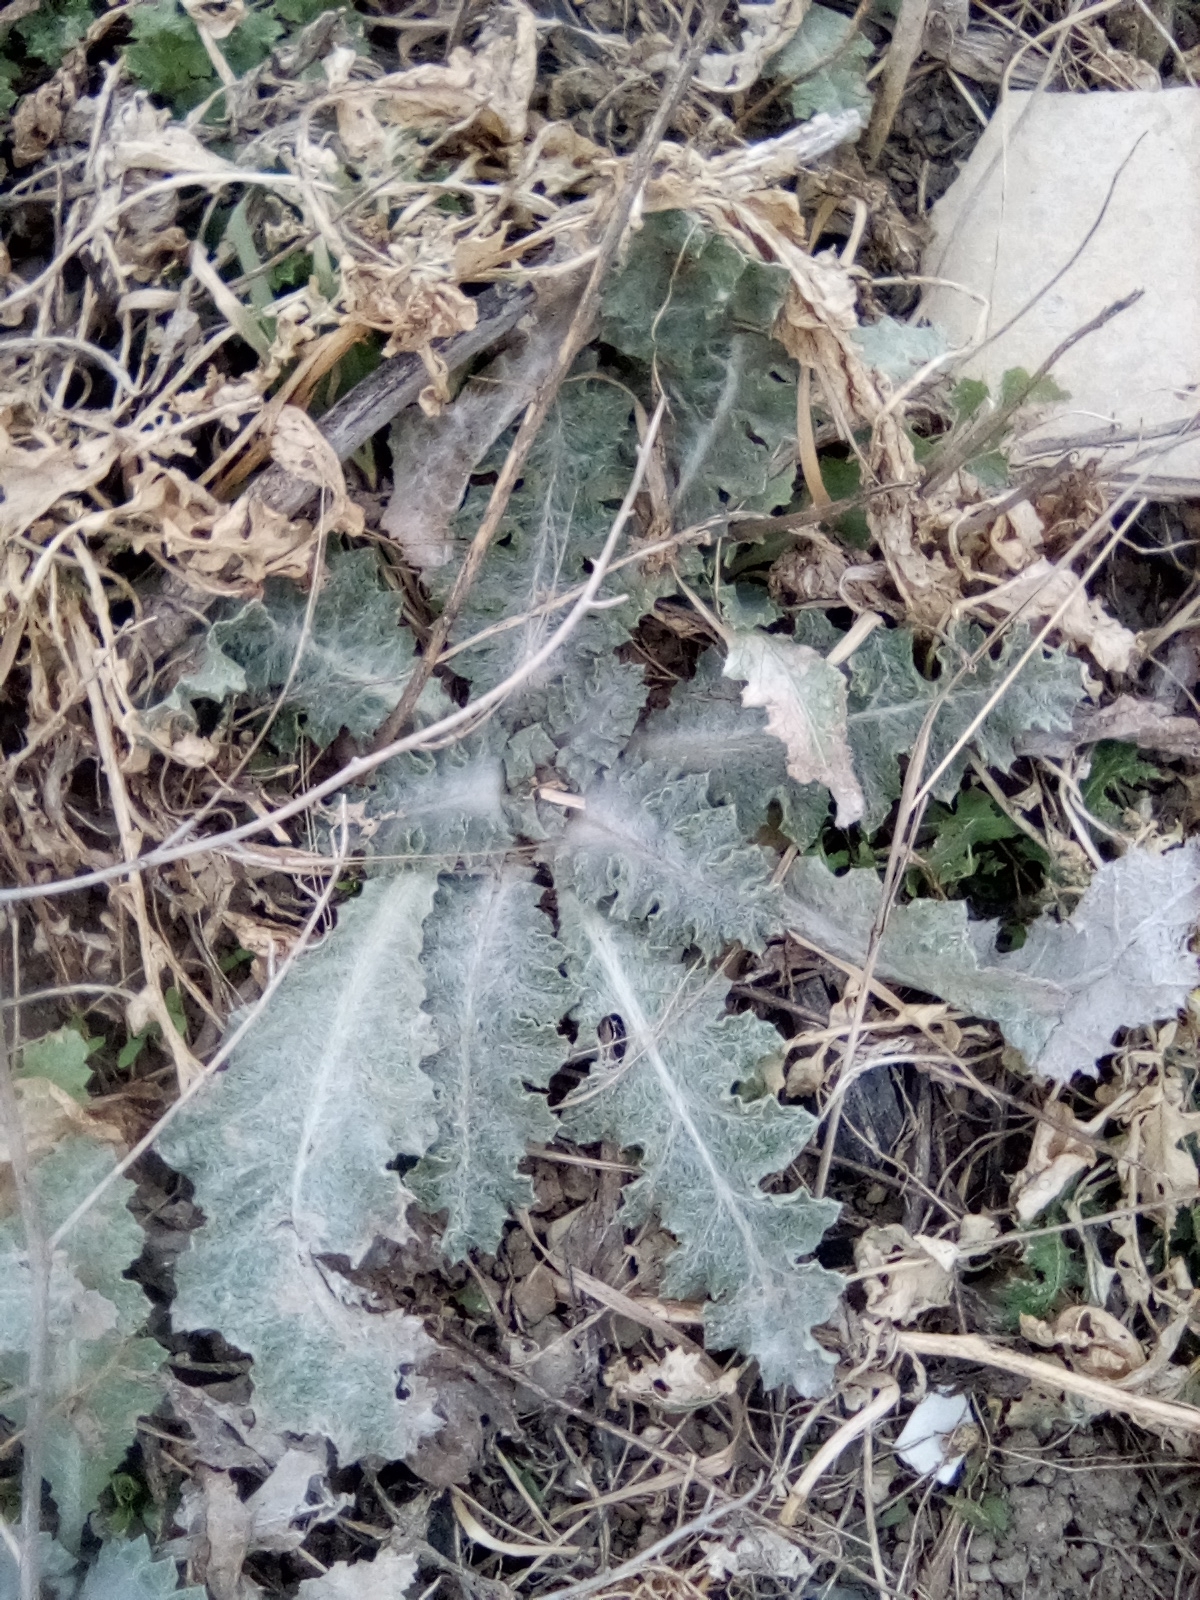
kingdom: Plantae
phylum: Tracheophyta
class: Magnoliopsida
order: Asterales
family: Asteraceae
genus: Onopordum
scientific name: Onopordum acanthium
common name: Scotch thistle
